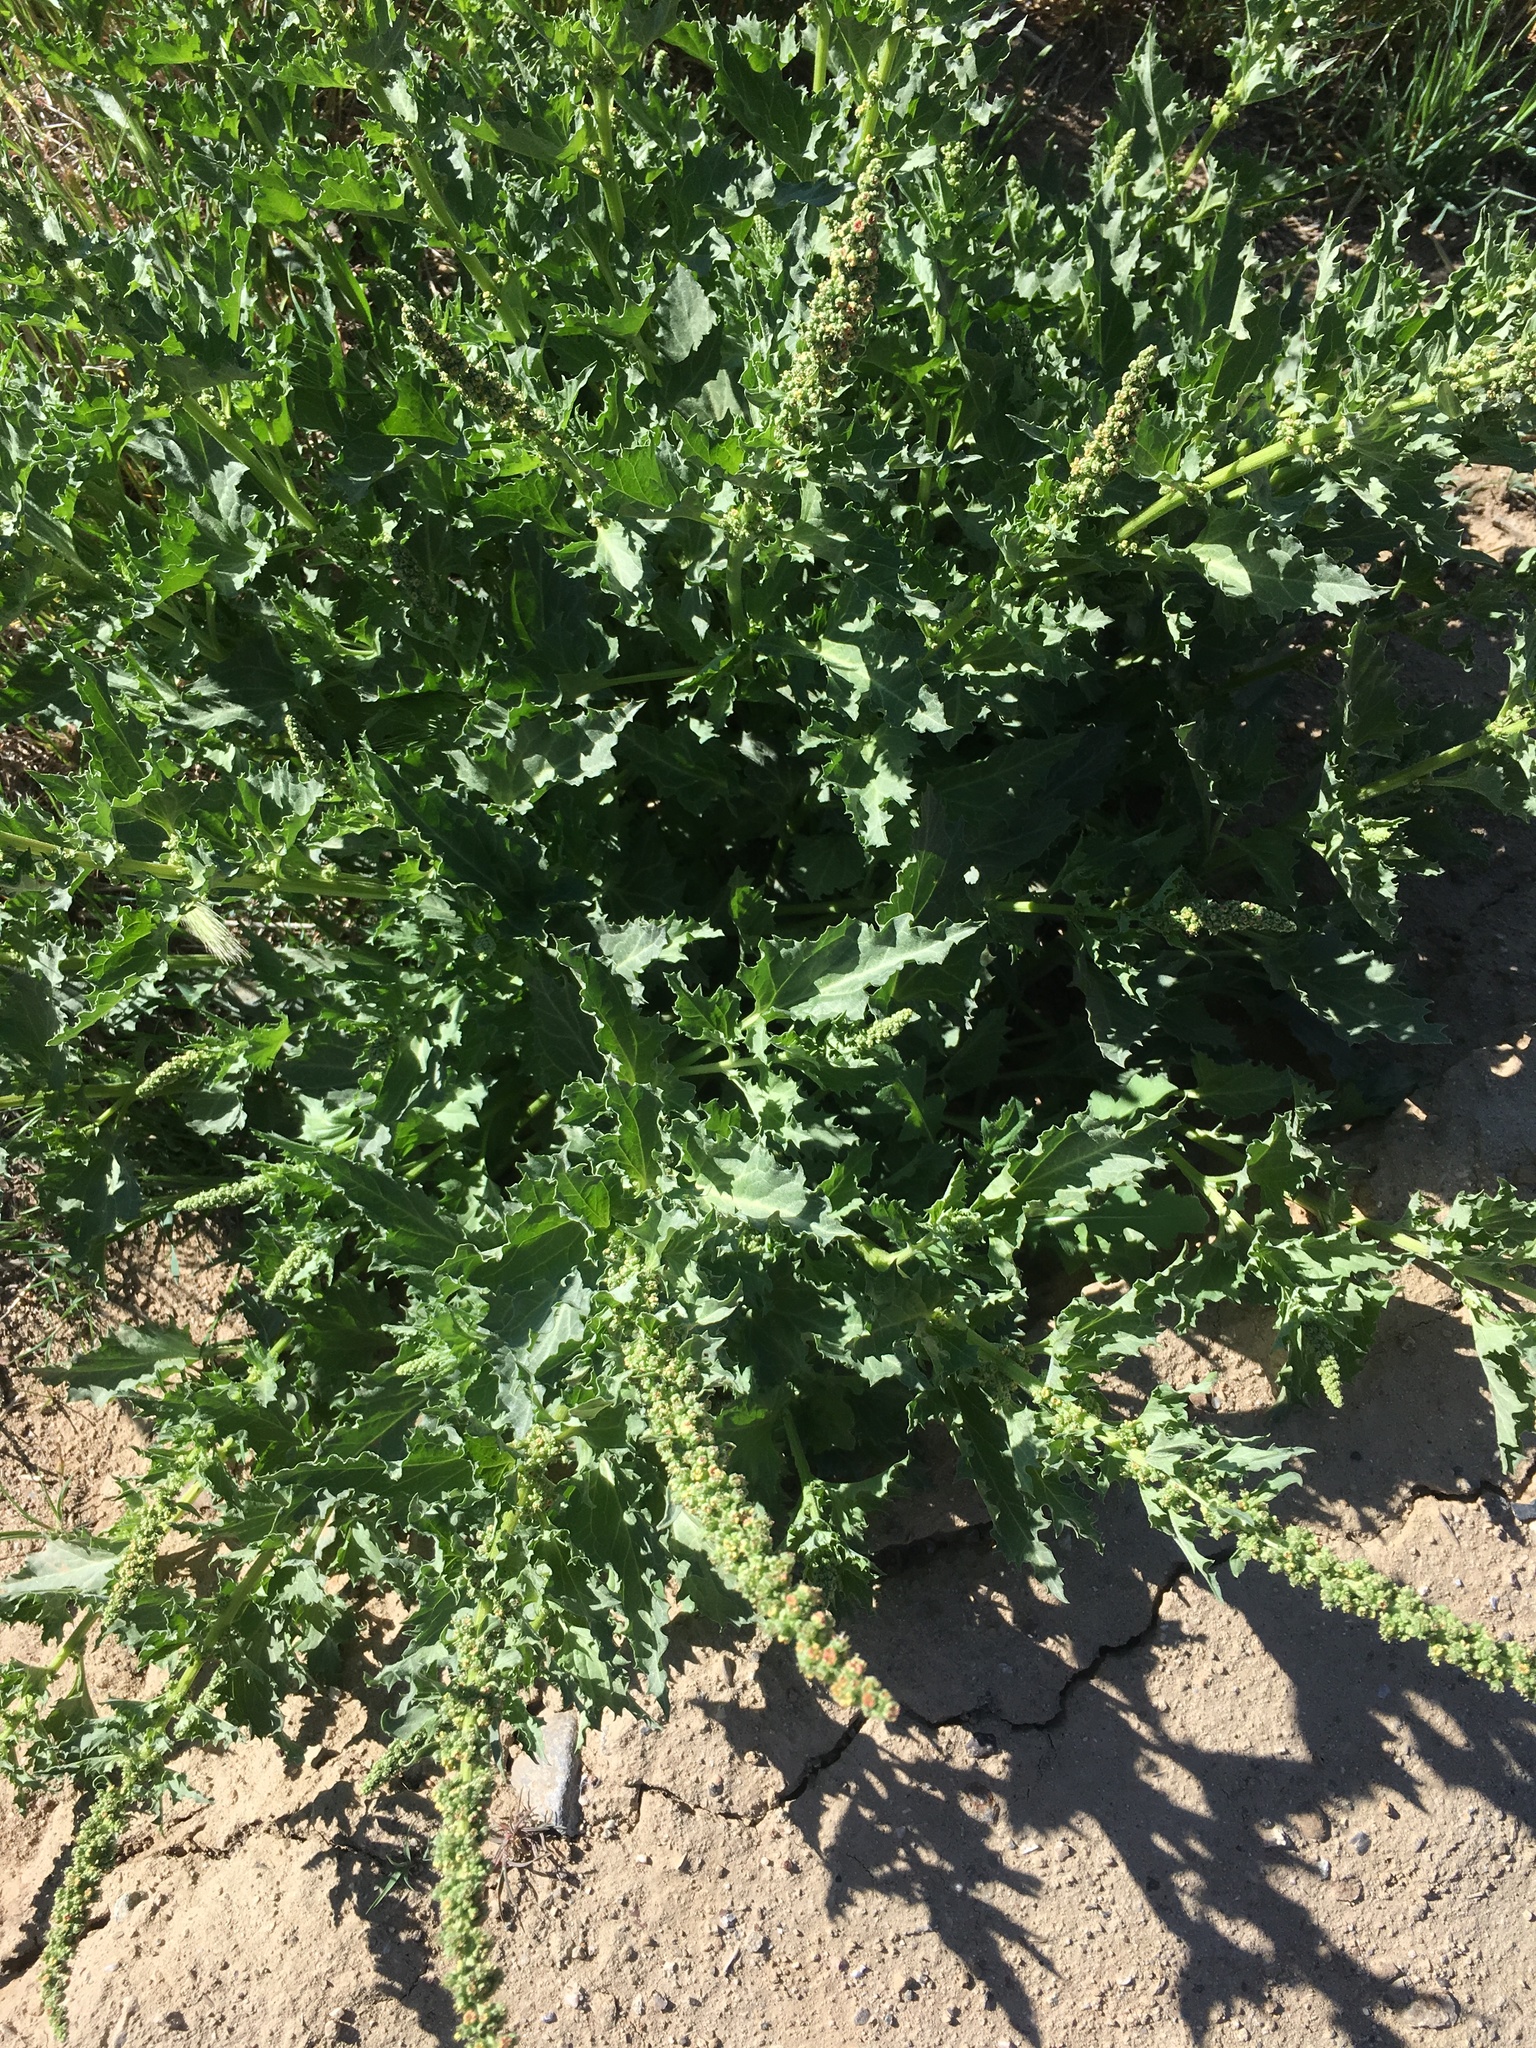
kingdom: Plantae
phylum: Tracheophyta
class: Magnoliopsida
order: Caryophyllales
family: Amaranthaceae
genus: Blitum
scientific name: Blitum californicum
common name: California goosefoot
